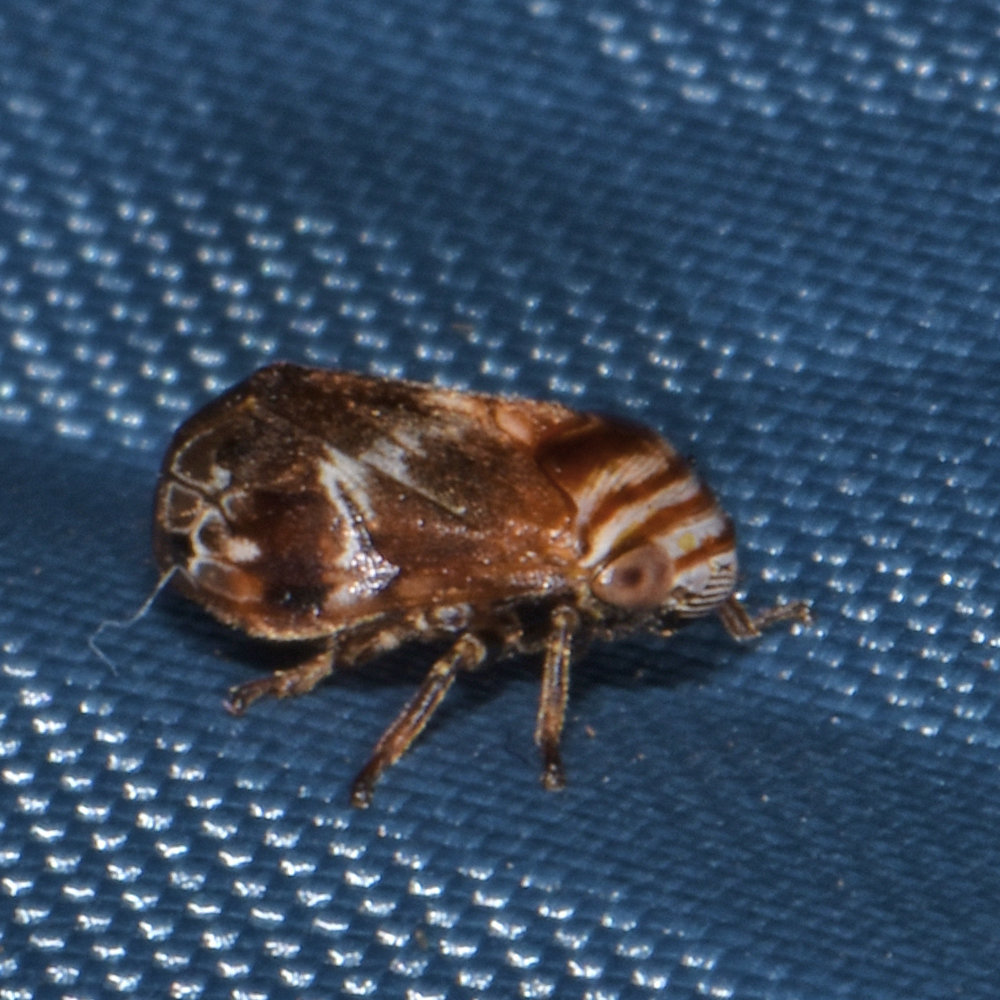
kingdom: Animalia
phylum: Arthropoda
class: Insecta
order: Hemiptera
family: Clastopteridae
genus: Clastoptera
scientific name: Clastoptera obtusa
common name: Alder spittlebug
